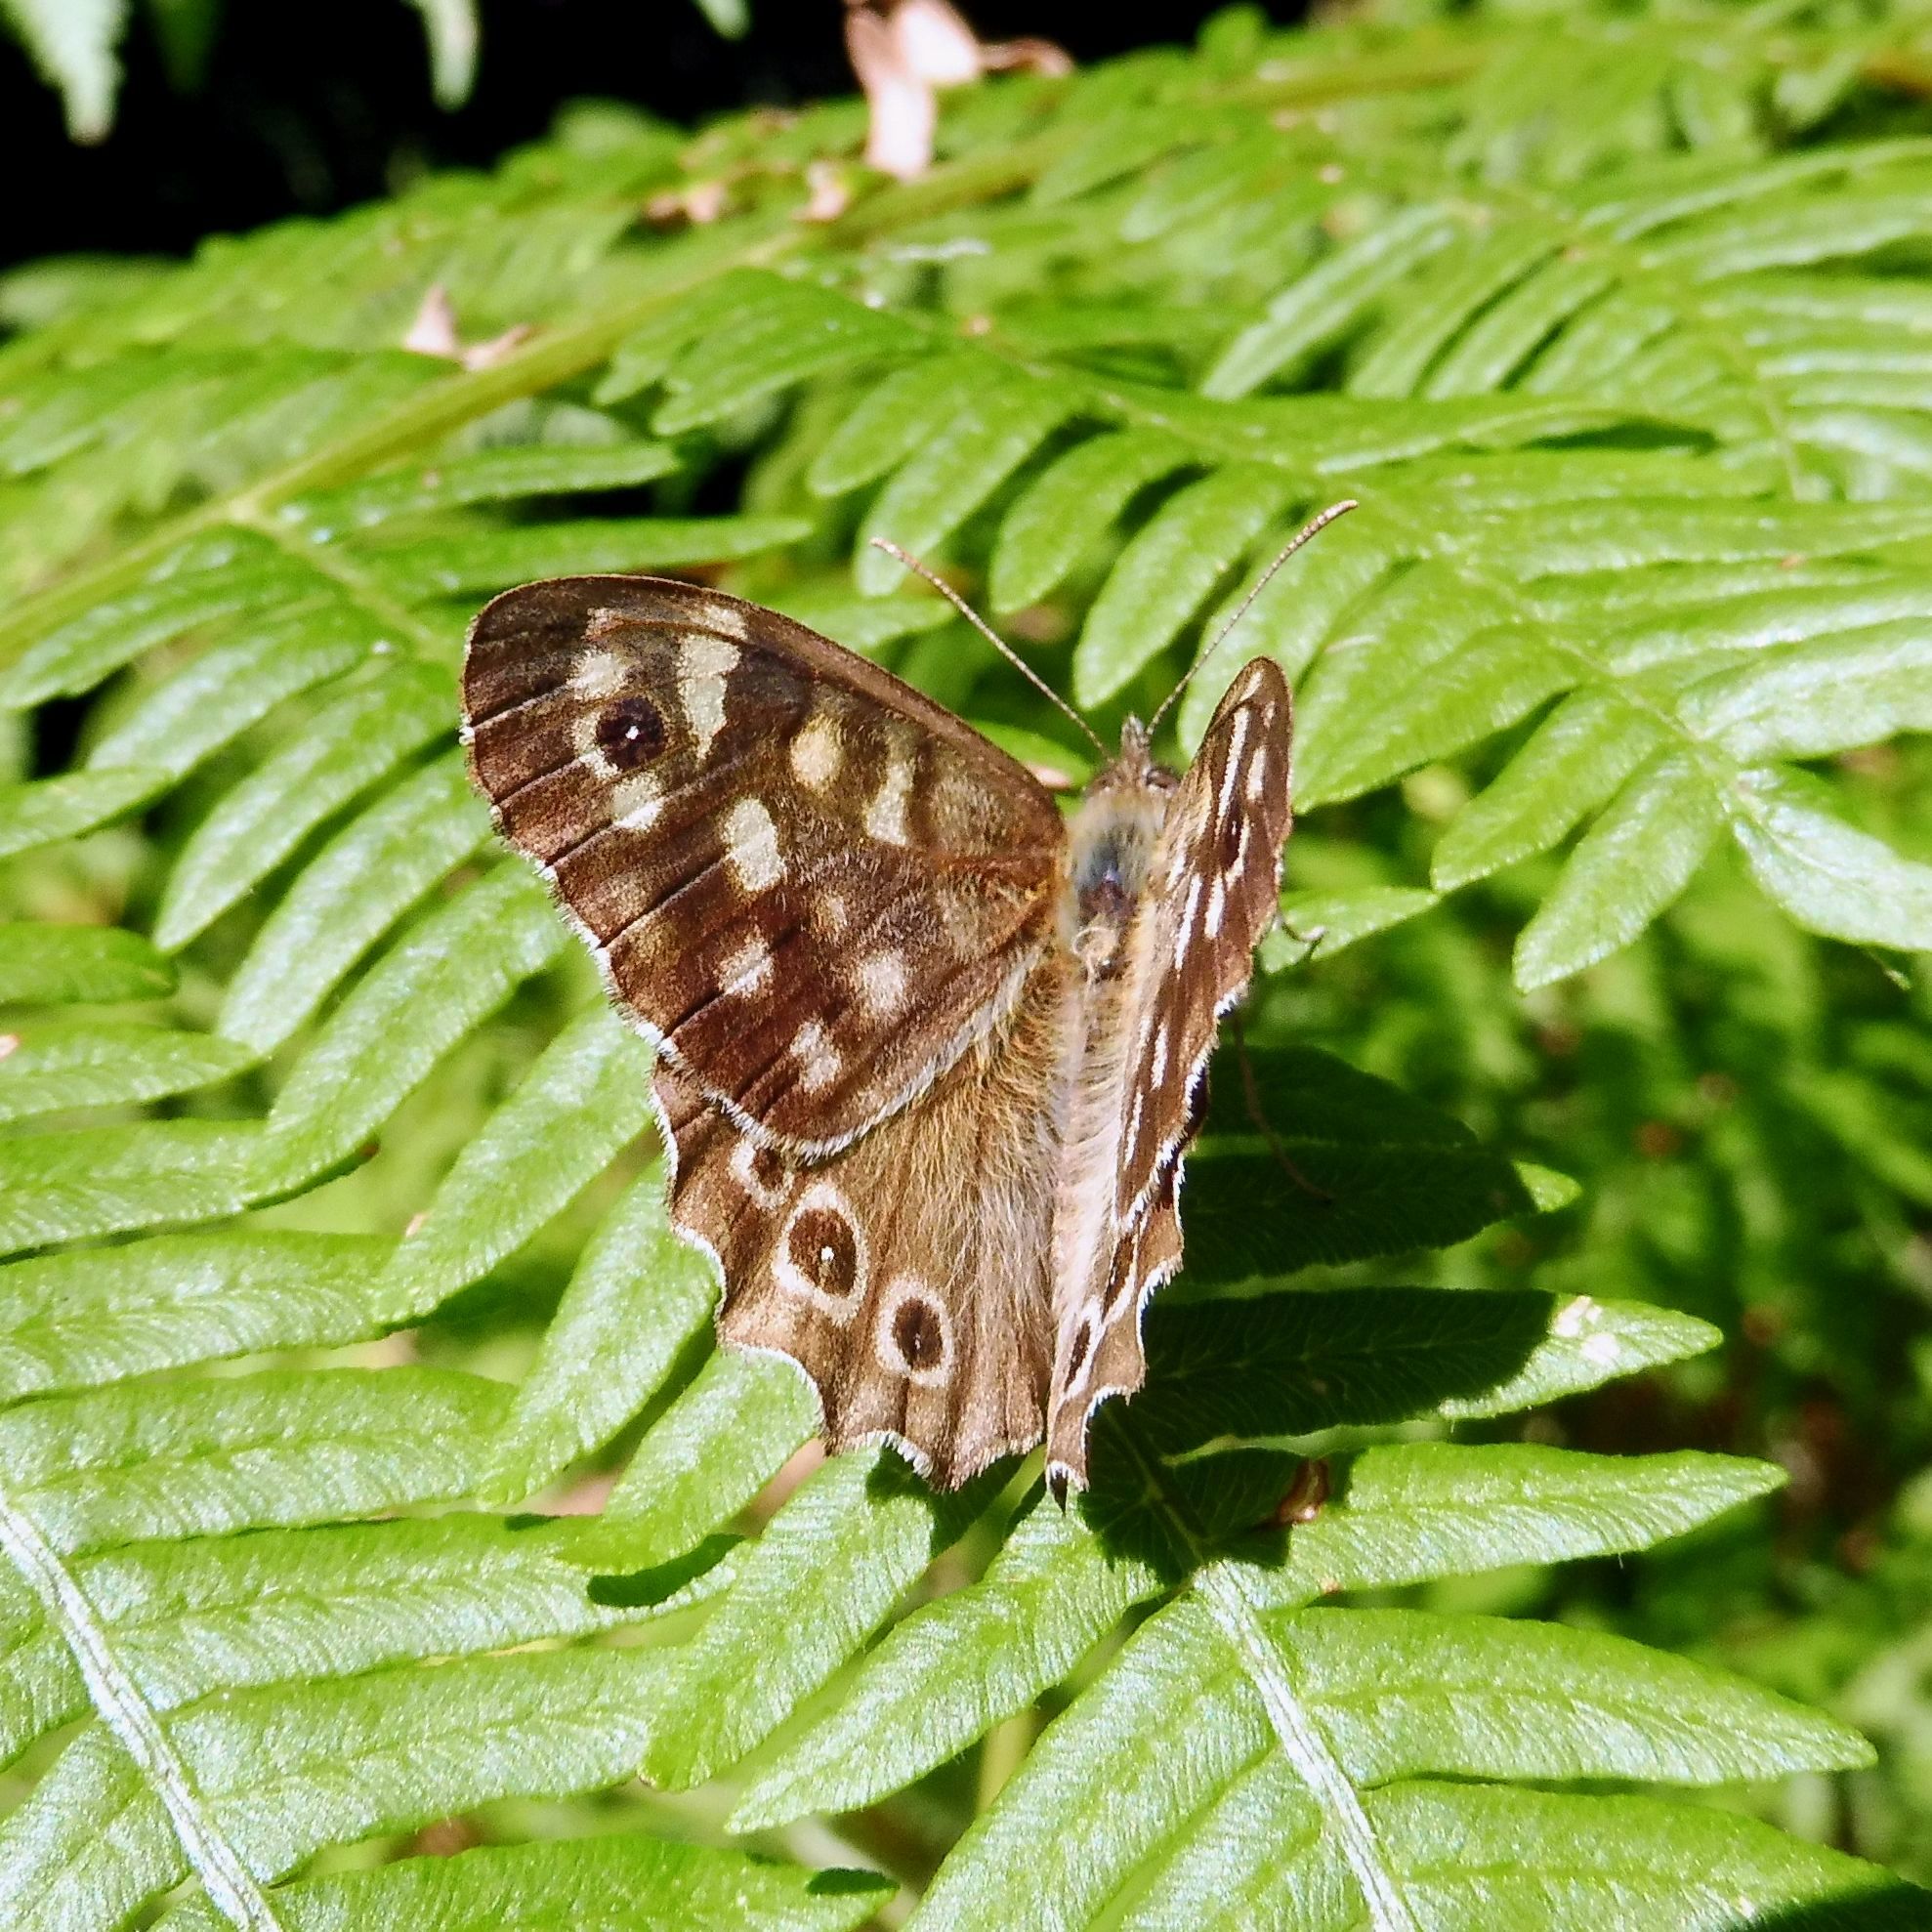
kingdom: Animalia
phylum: Arthropoda
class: Insecta
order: Lepidoptera
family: Nymphalidae
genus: Pararge
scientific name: Pararge aegeria
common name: Speckled wood
